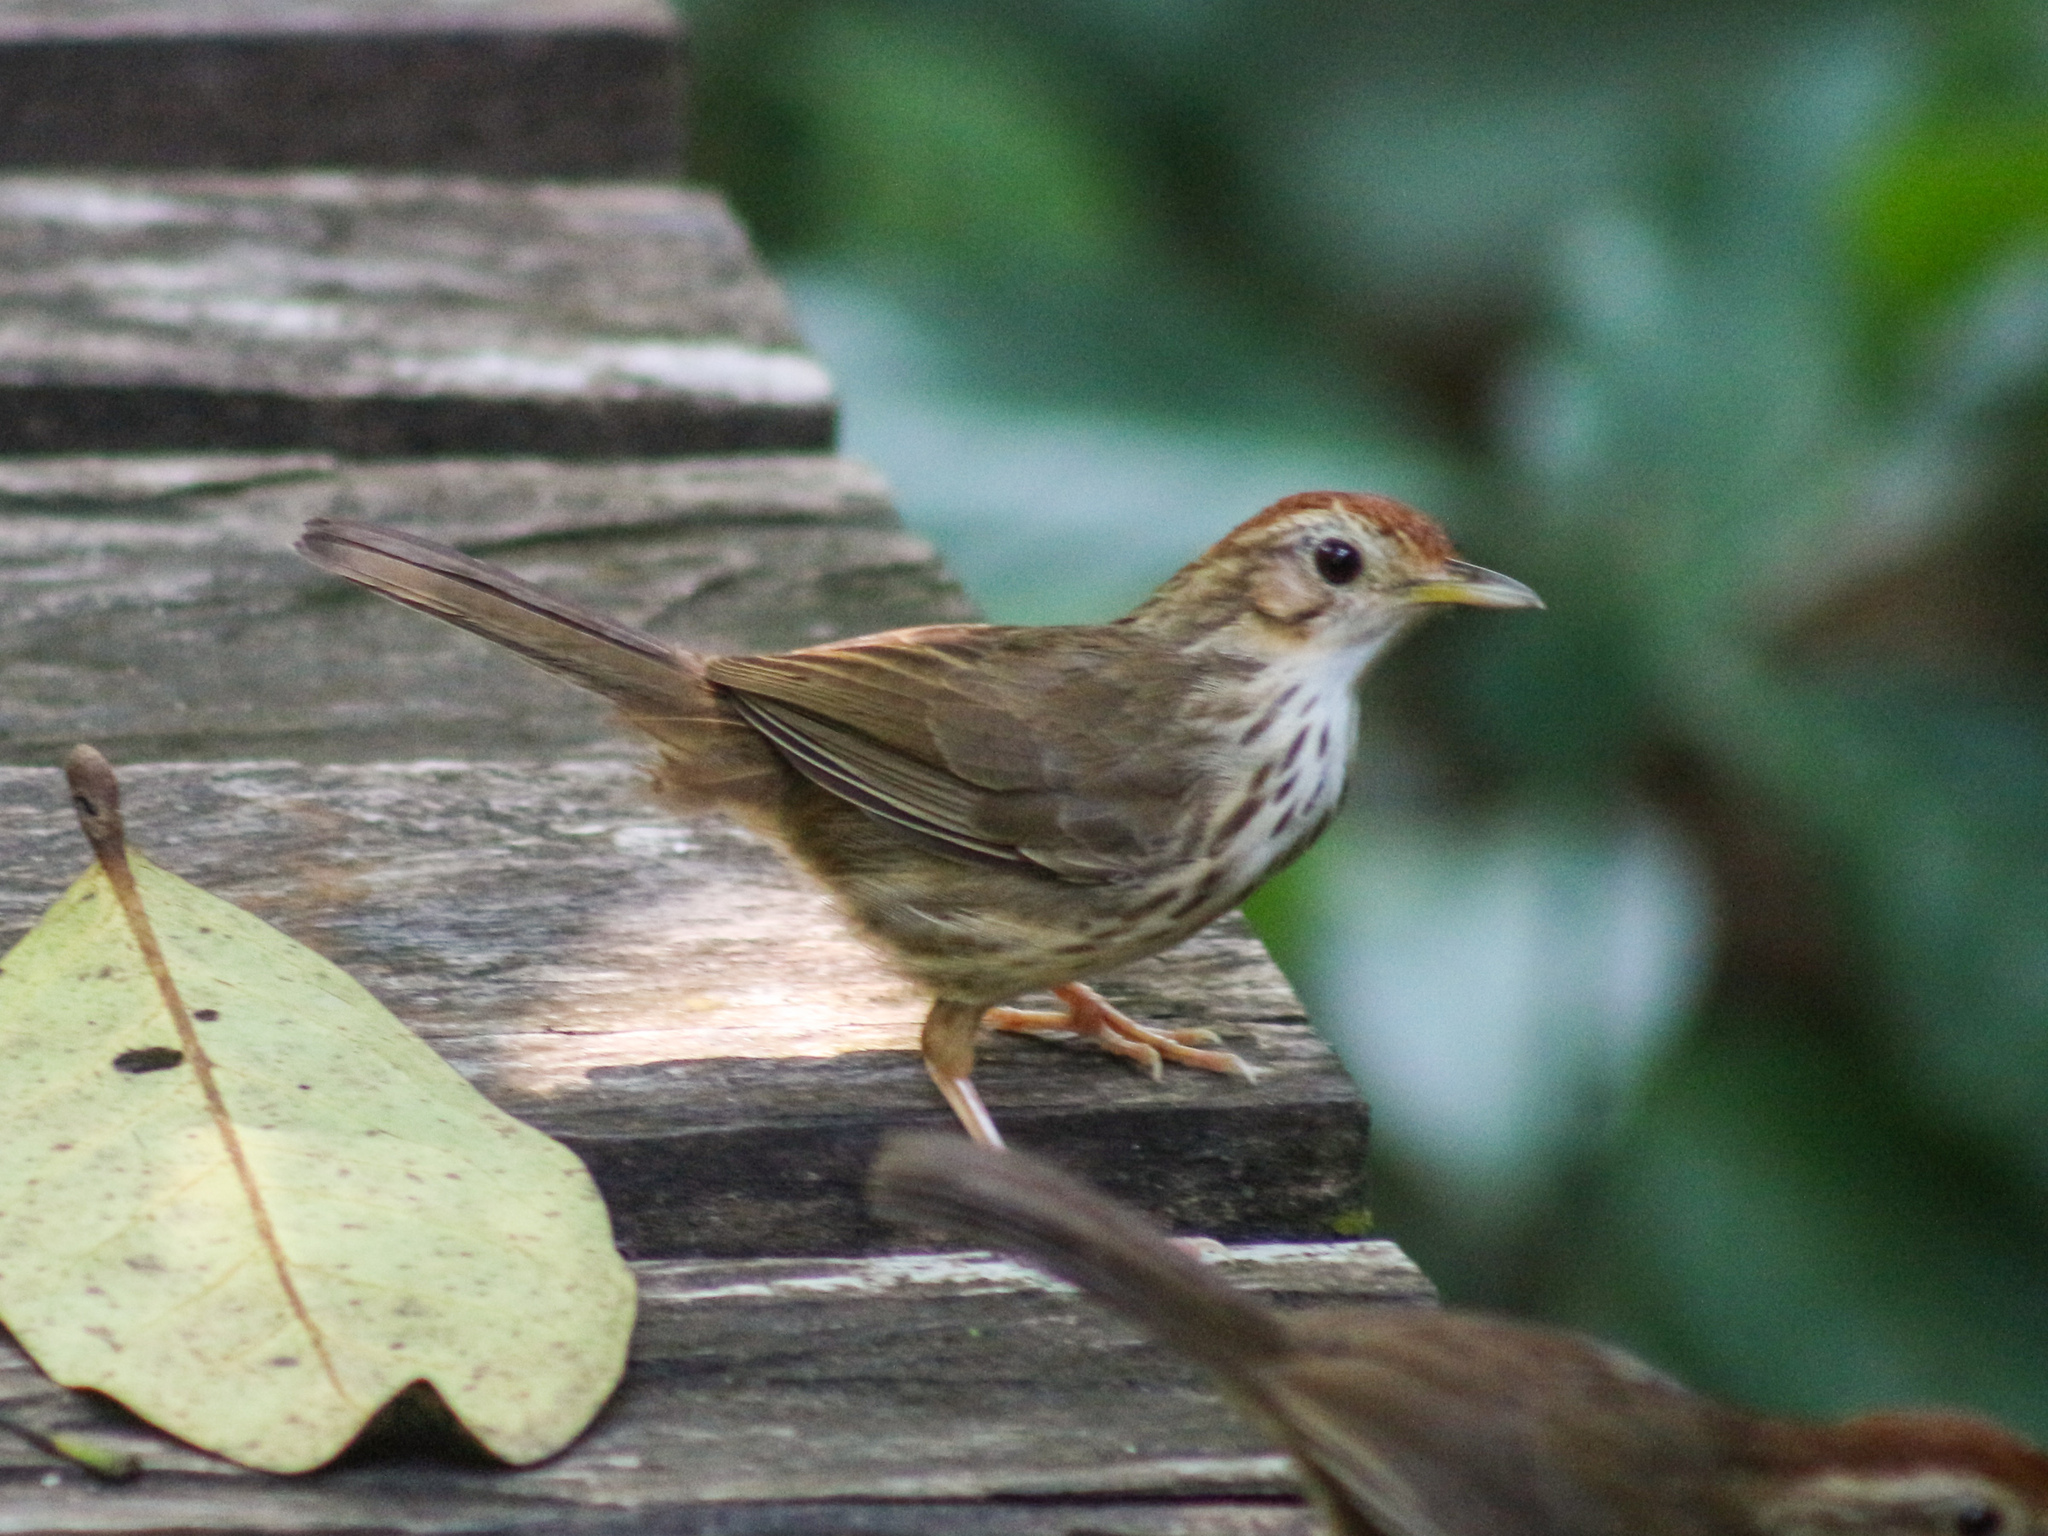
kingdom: Animalia
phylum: Chordata
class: Aves
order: Passeriformes
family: Pellorneidae
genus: Pellorneum
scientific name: Pellorneum ruficeps
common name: Puff-throated babbler
